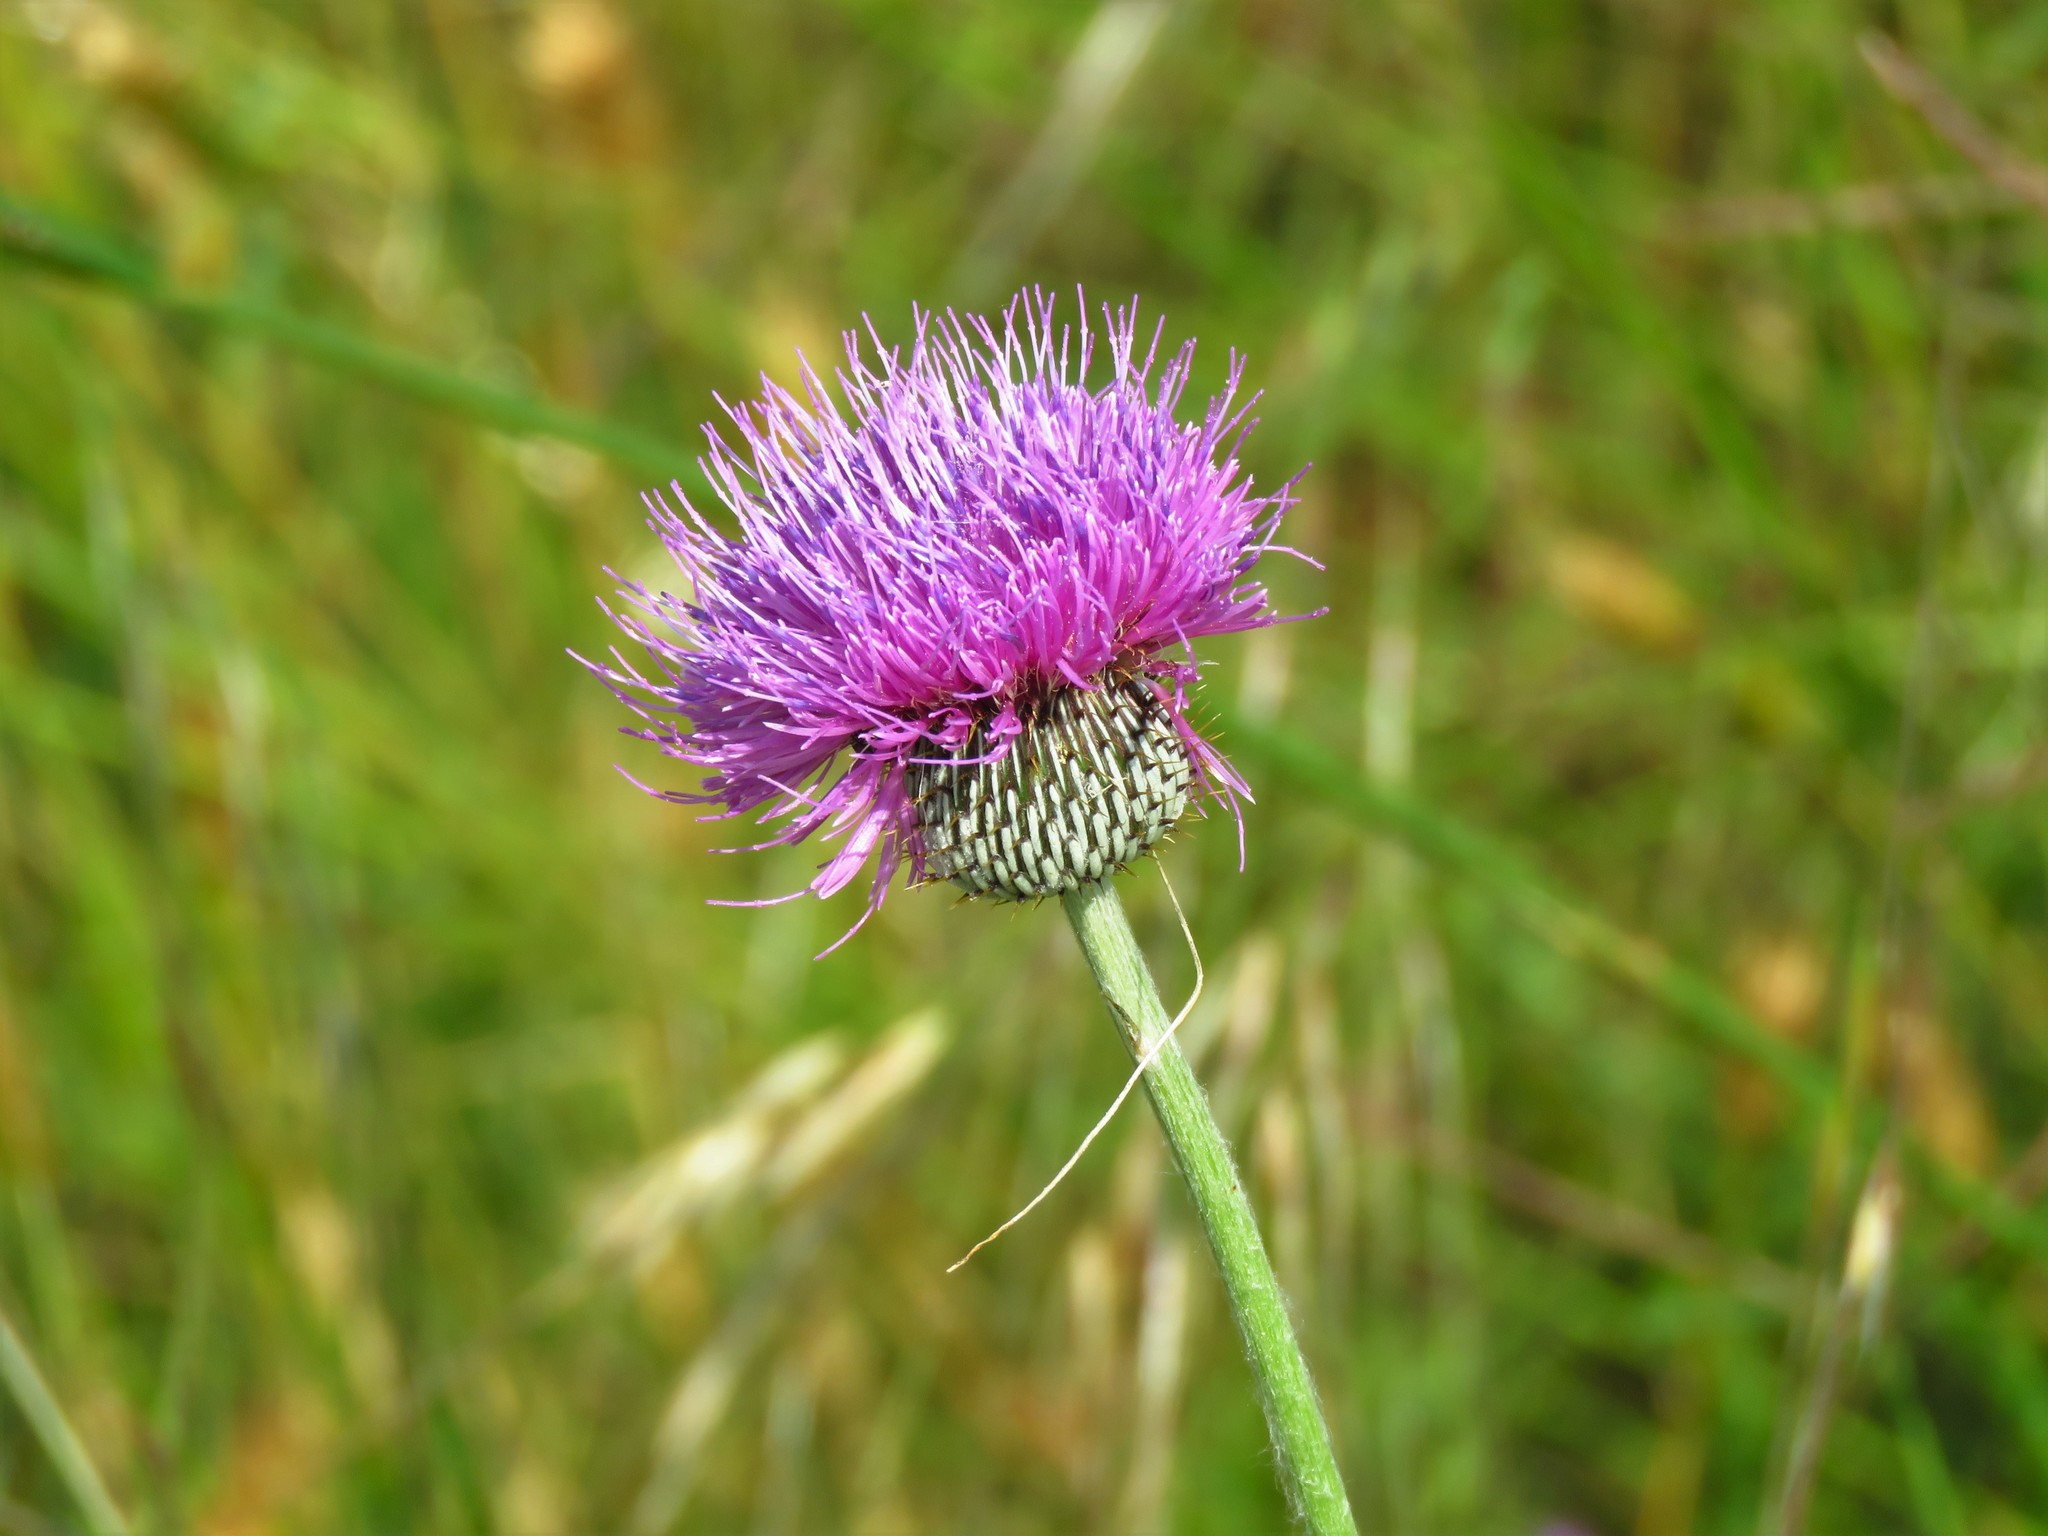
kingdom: Plantae
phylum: Tracheophyta
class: Magnoliopsida
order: Asterales
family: Asteraceae
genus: Cirsium
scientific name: Cirsium texanum
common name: Texas purple thistle
